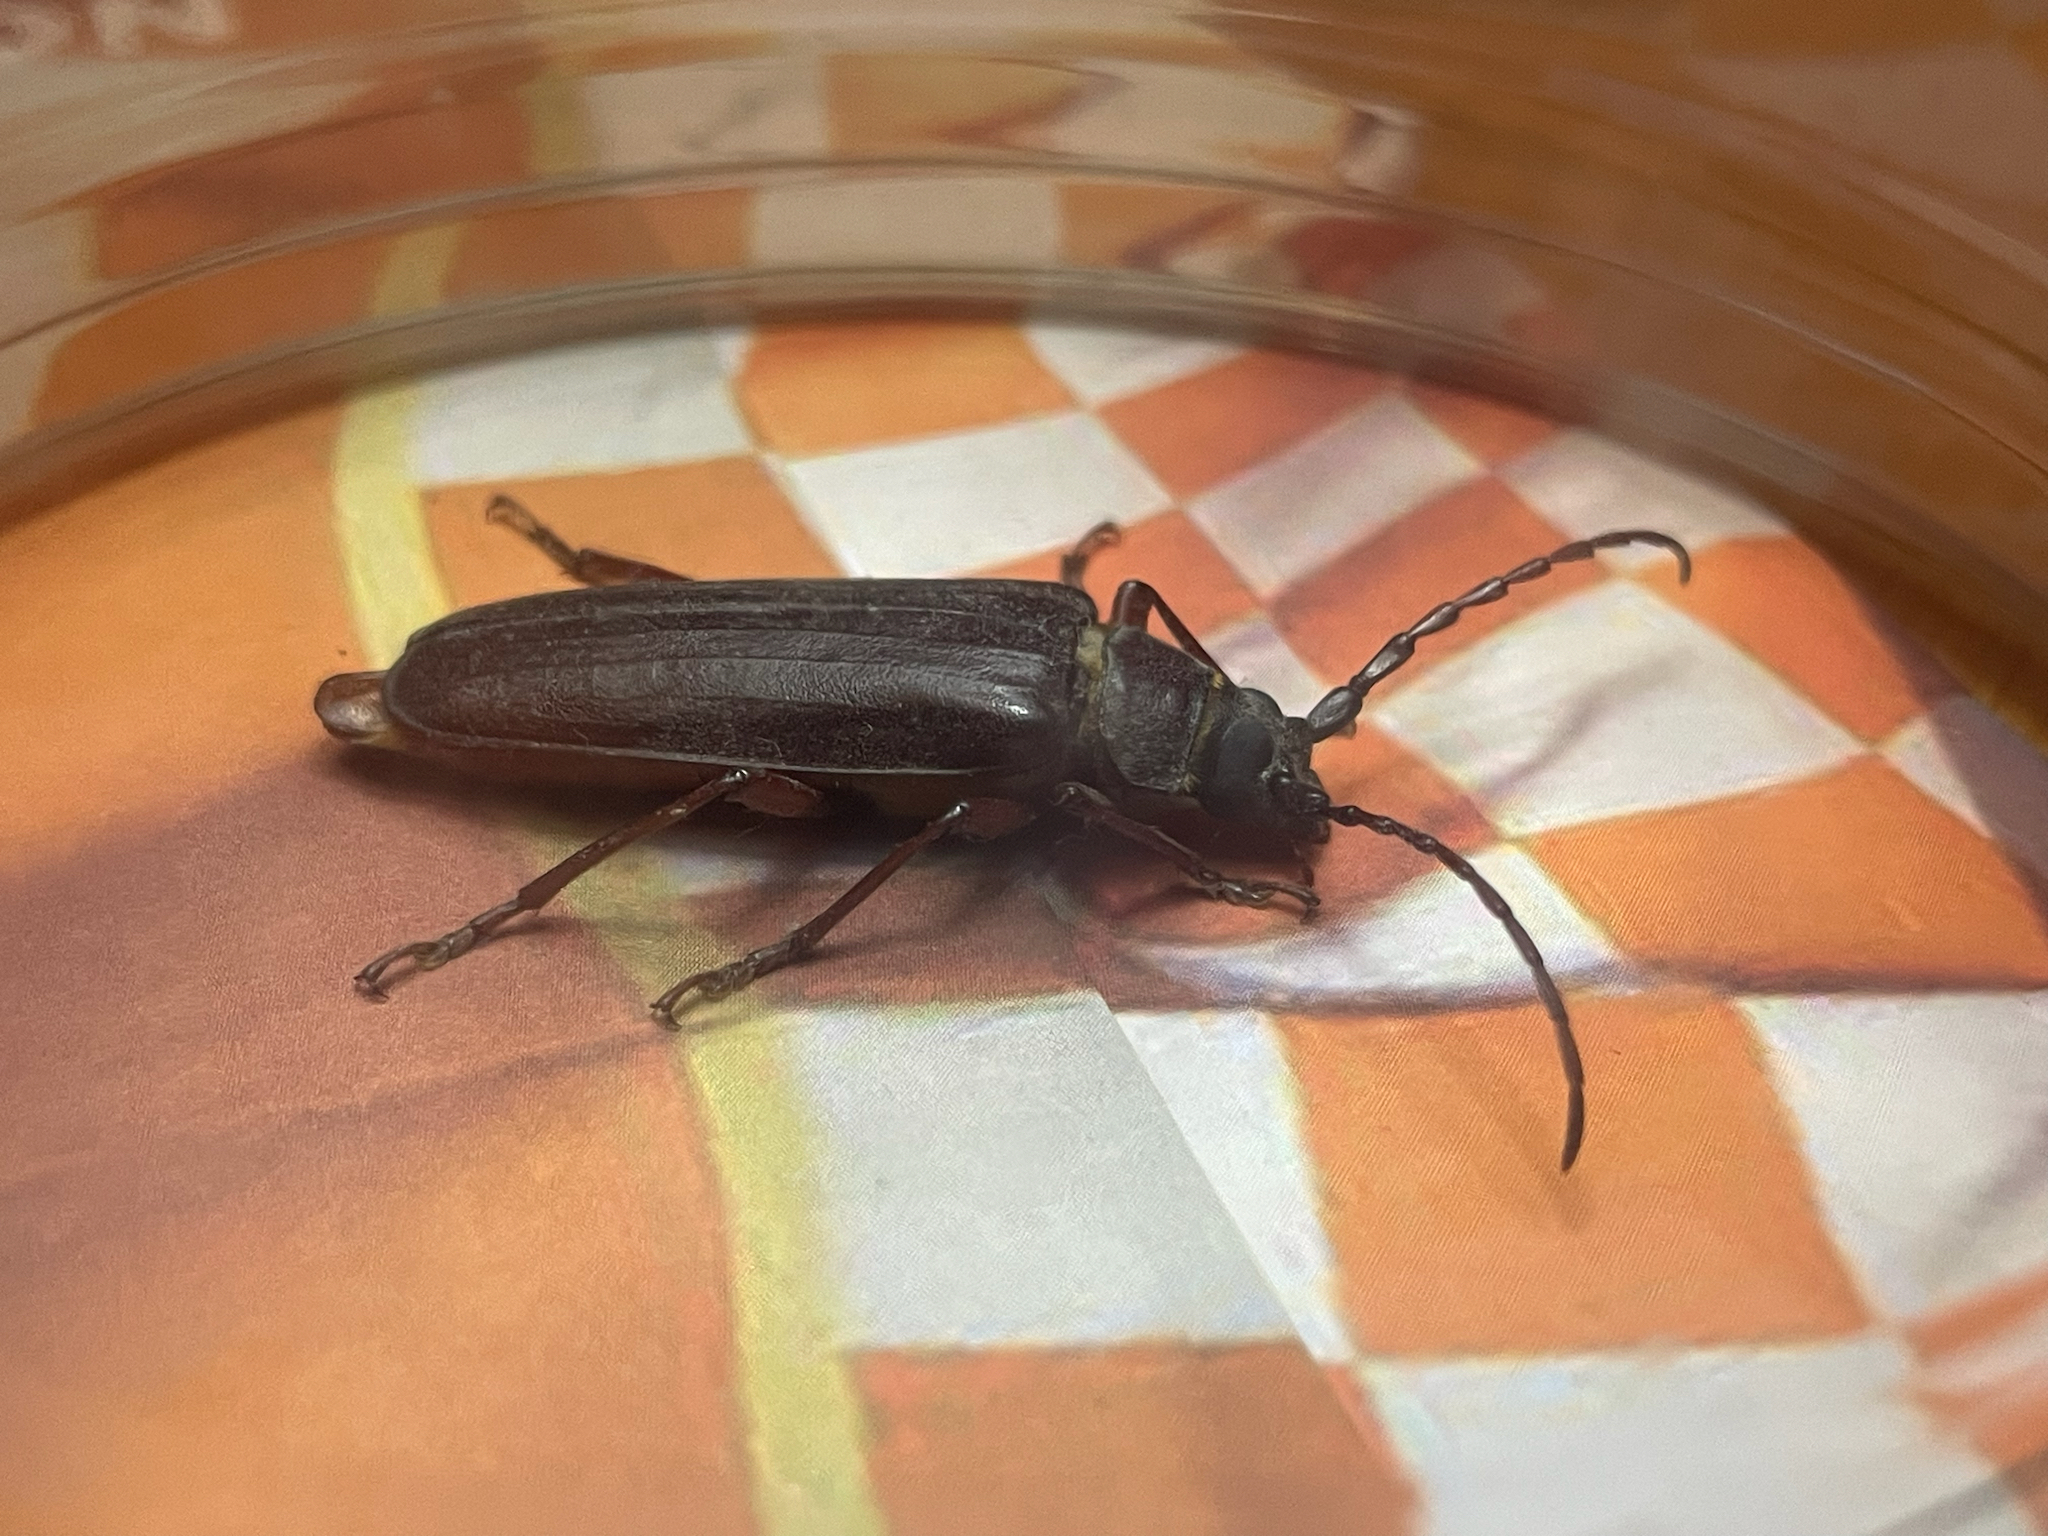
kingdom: Animalia
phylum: Arthropoda
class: Insecta
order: Coleoptera
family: Cerambycidae
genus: Orthosoma
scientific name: Orthosoma brunneum
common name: Brown prionid beetle
